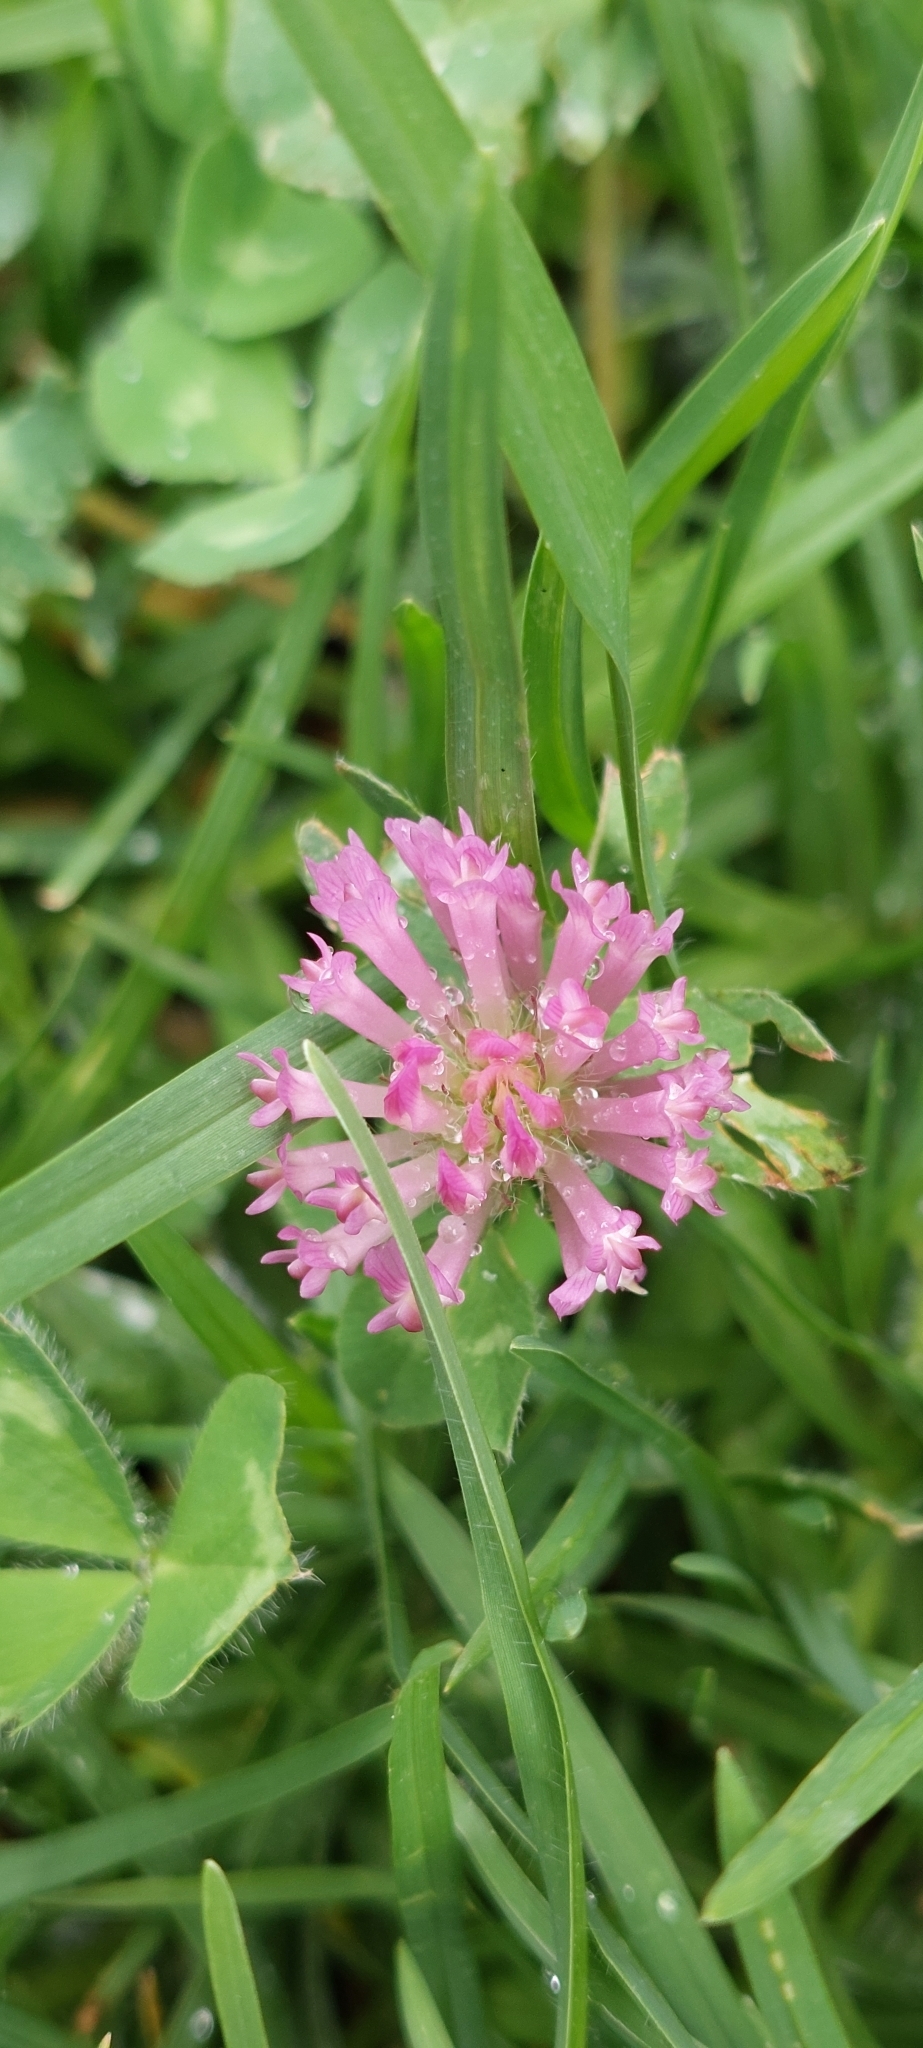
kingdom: Plantae
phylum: Tracheophyta
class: Magnoliopsida
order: Fabales
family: Fabaceae
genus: Trifolium
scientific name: Trifolium pratense
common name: Red clover
